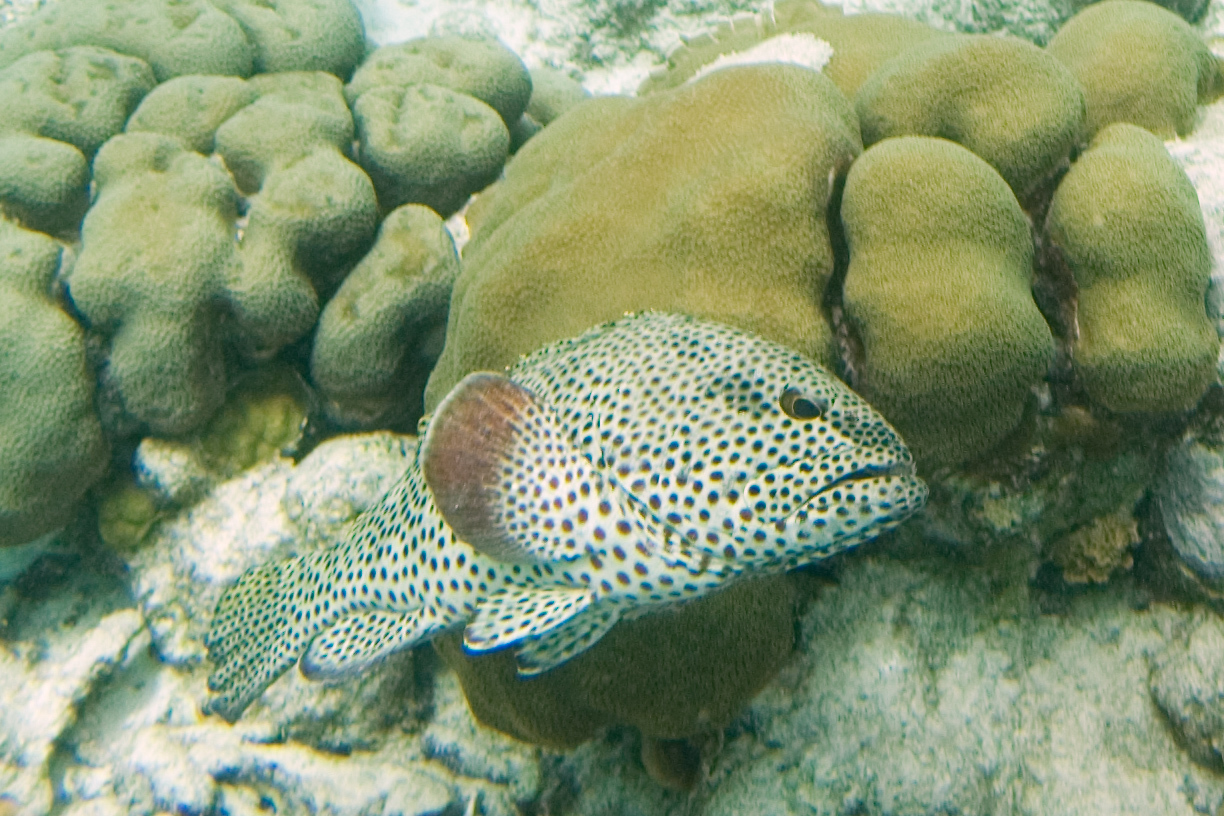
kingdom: Animalia
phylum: Chordata
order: Perciformes
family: Serranidae
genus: Epinephelus
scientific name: Epinephelus adscensionis
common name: Rock hind
